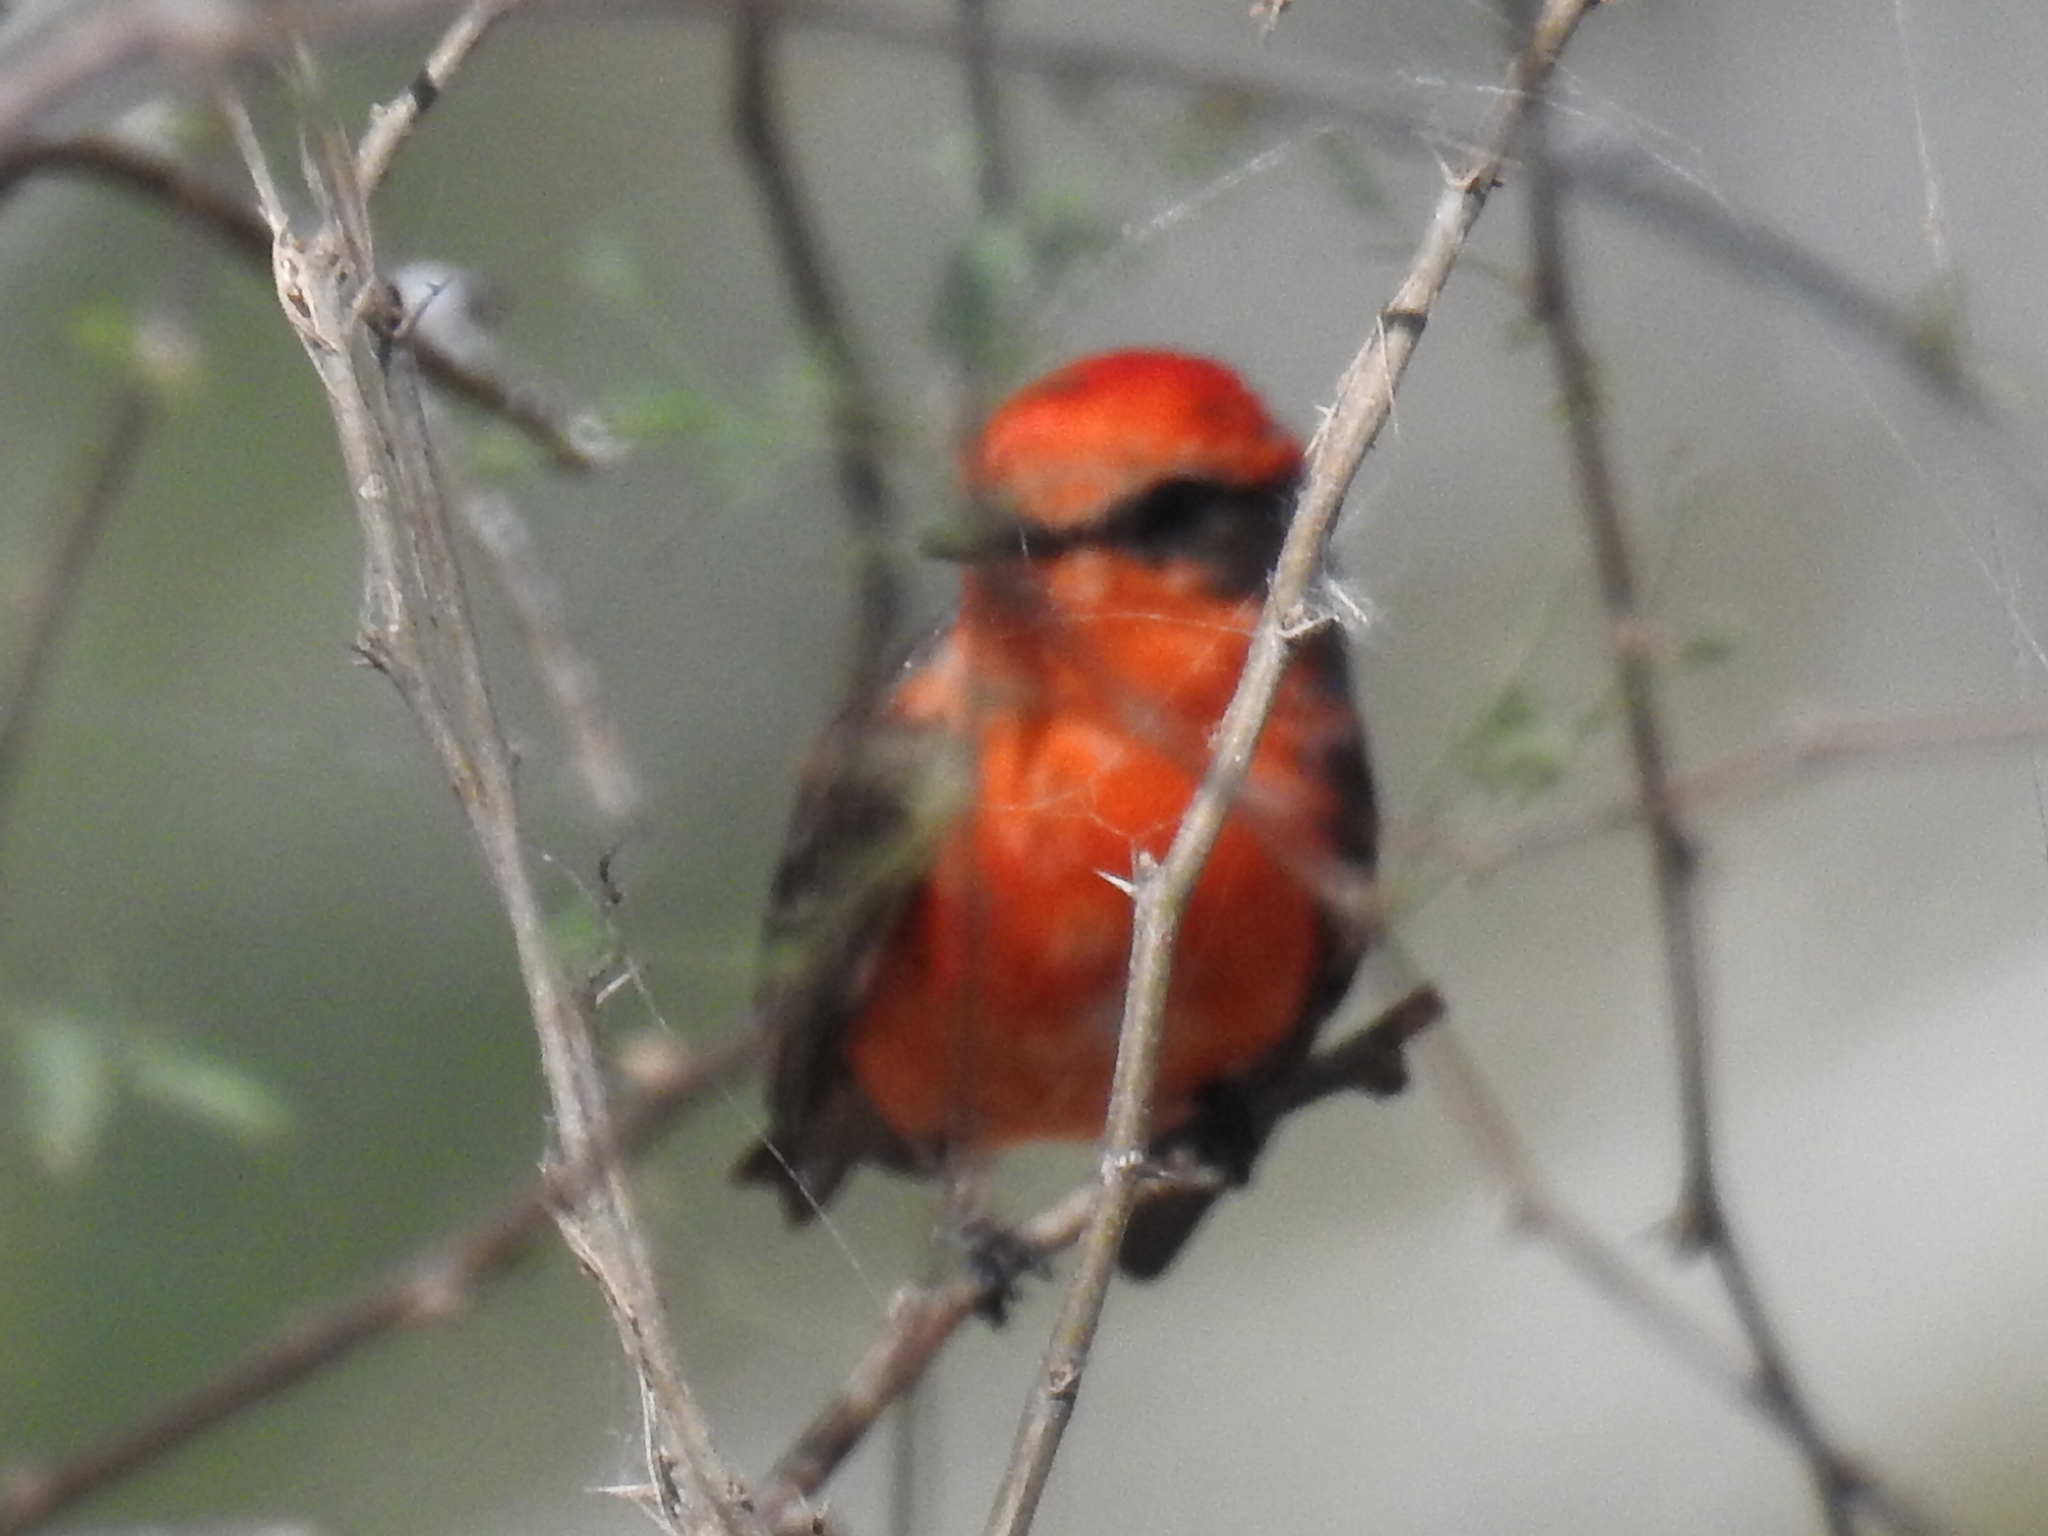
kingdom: Animalia
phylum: Chordata
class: Aves
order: Passeriformes
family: Tyrannidae
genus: Pyrocephalus
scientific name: Pyrocephalus rubinus
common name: Vermilion flycatcher
